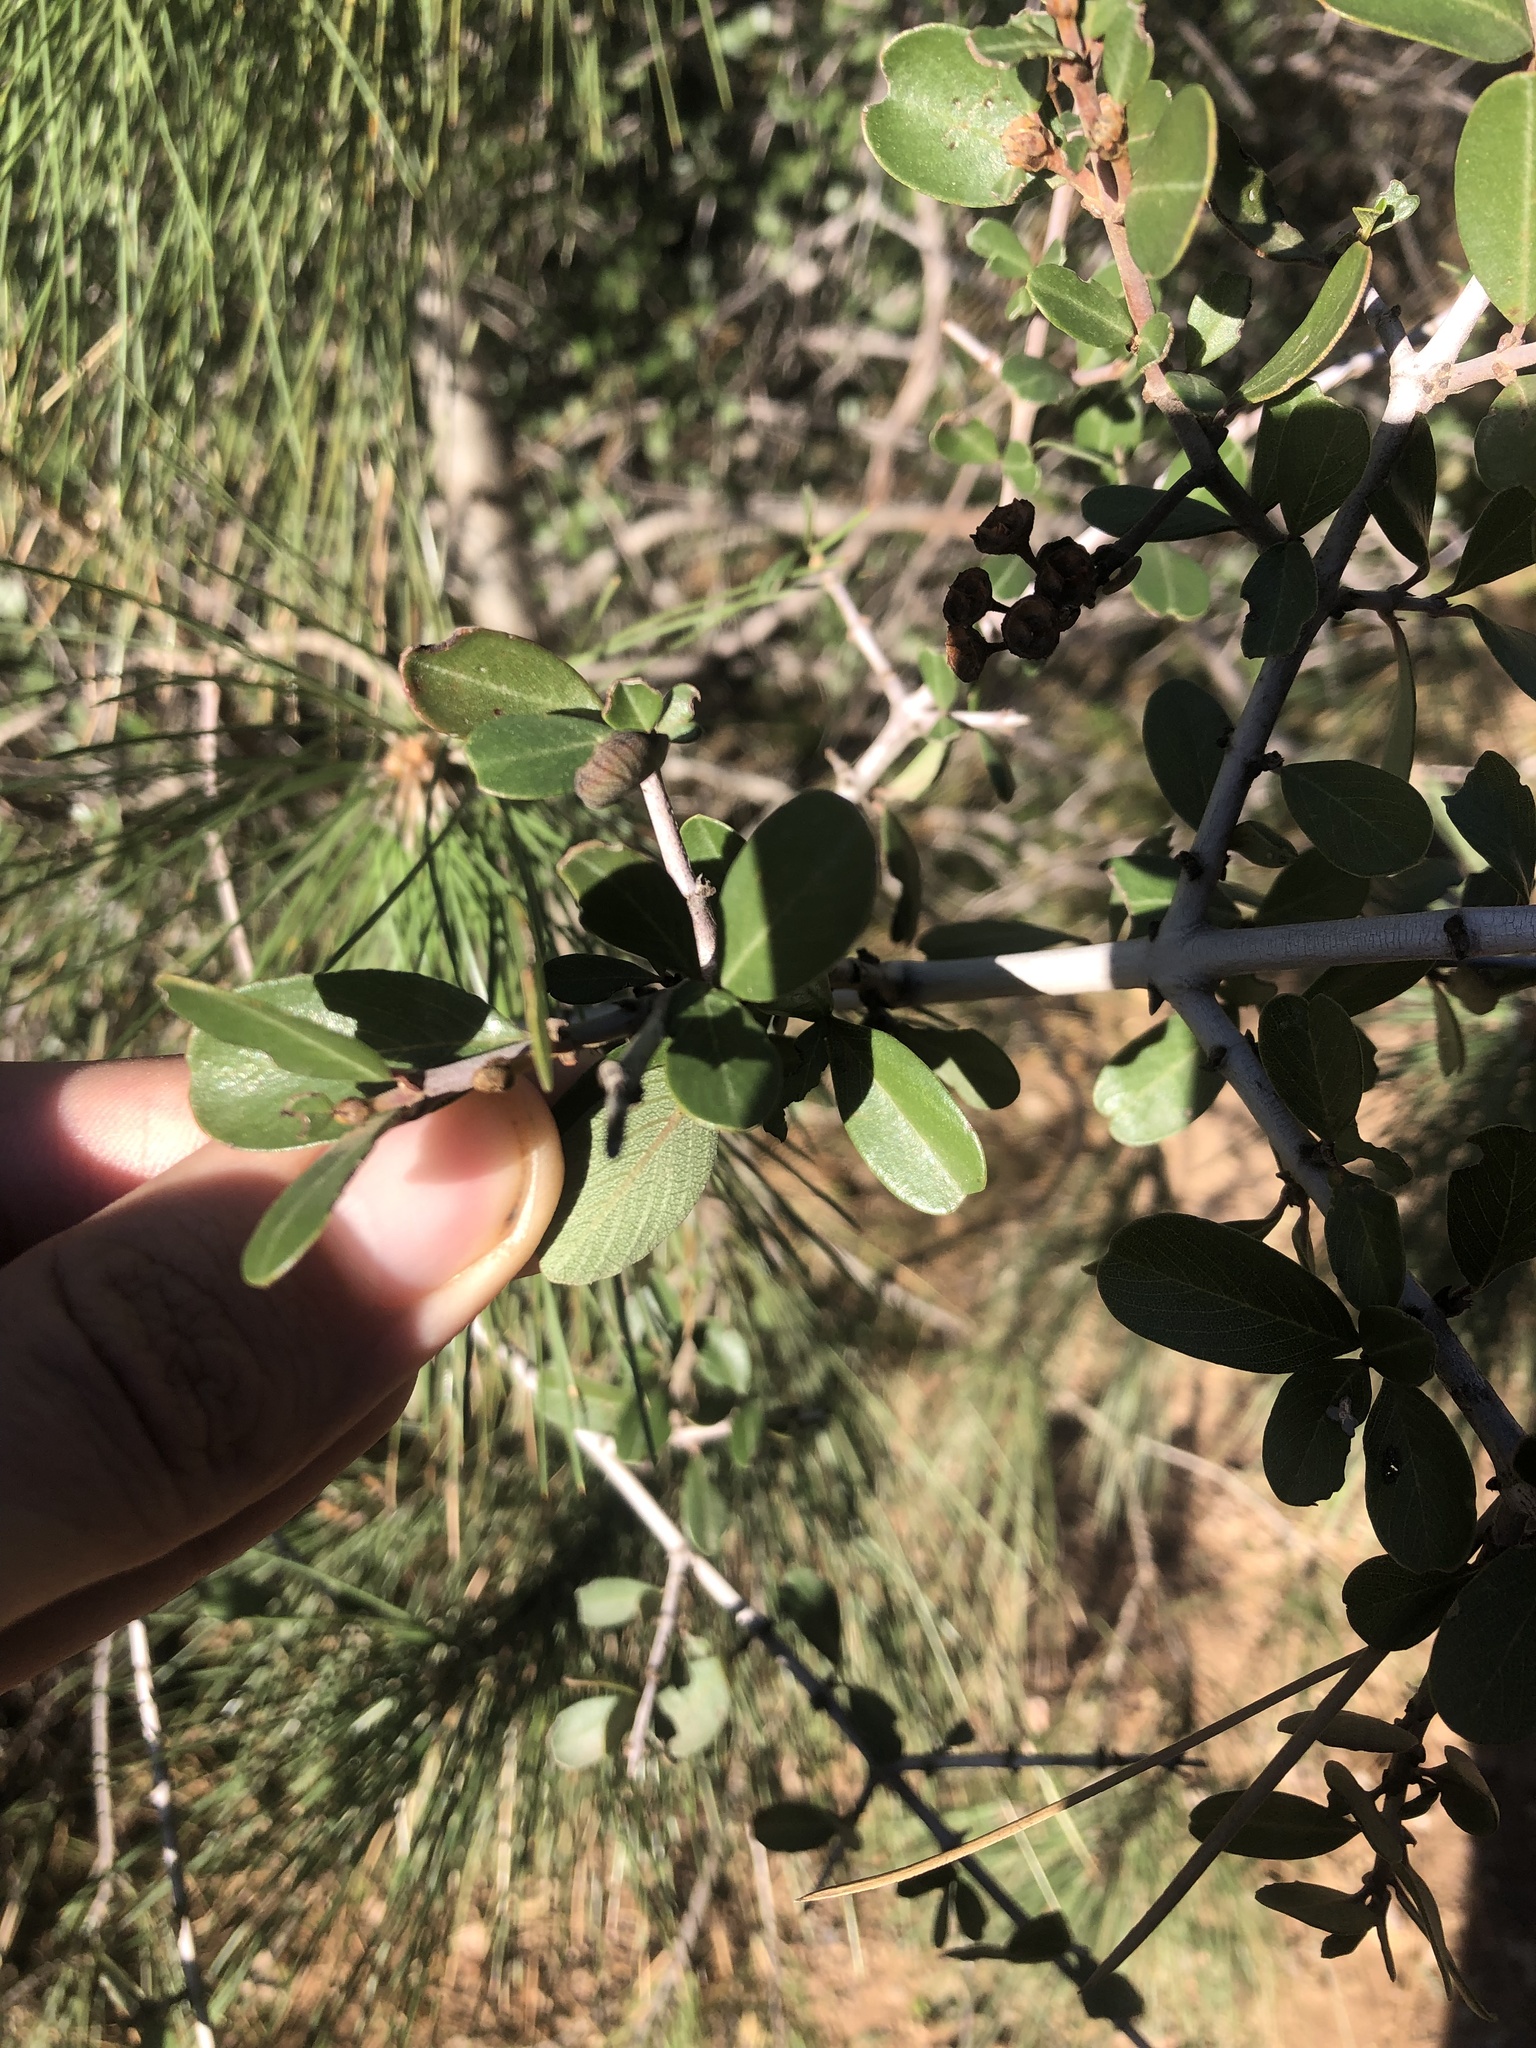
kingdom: Plantae
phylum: Tracheophyta
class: Magnoliopsida
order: Rosales
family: Rhamnaceae
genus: Ceanothus
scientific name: Ceanothus cuneatus
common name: Cuneate ceanothus
